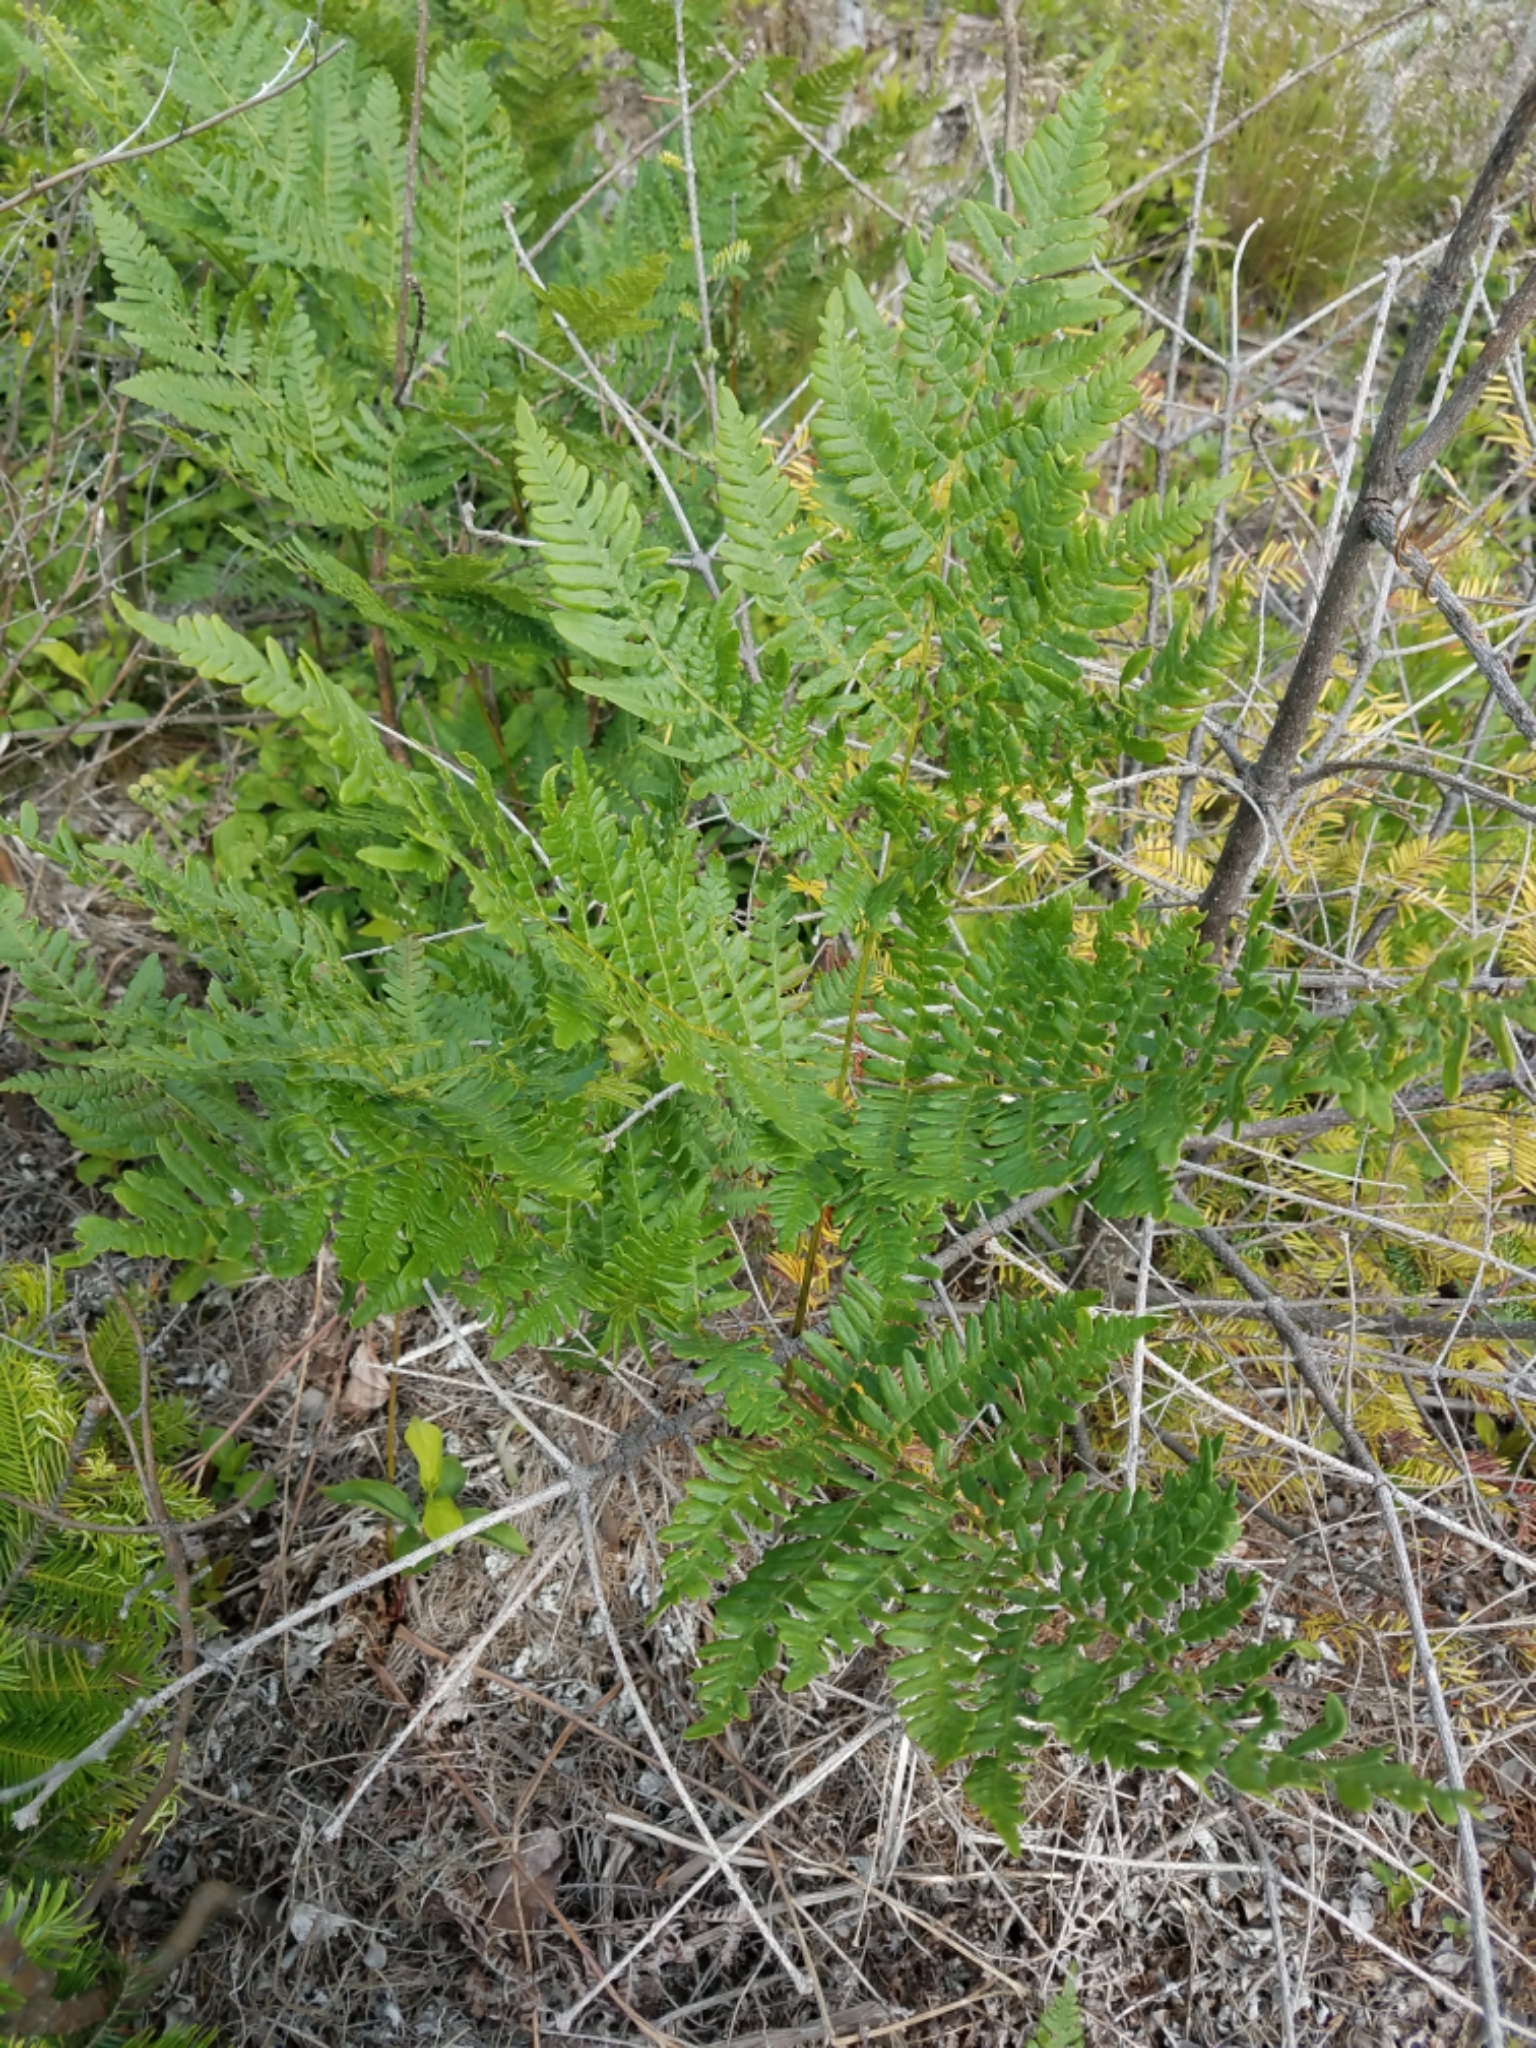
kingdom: Plantae
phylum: Tracheophyta
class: Polypodiopsida
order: Polypodiales
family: Dennstaedtiaceae
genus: Pteridium
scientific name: Pteridium aquilinum
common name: Bracken
